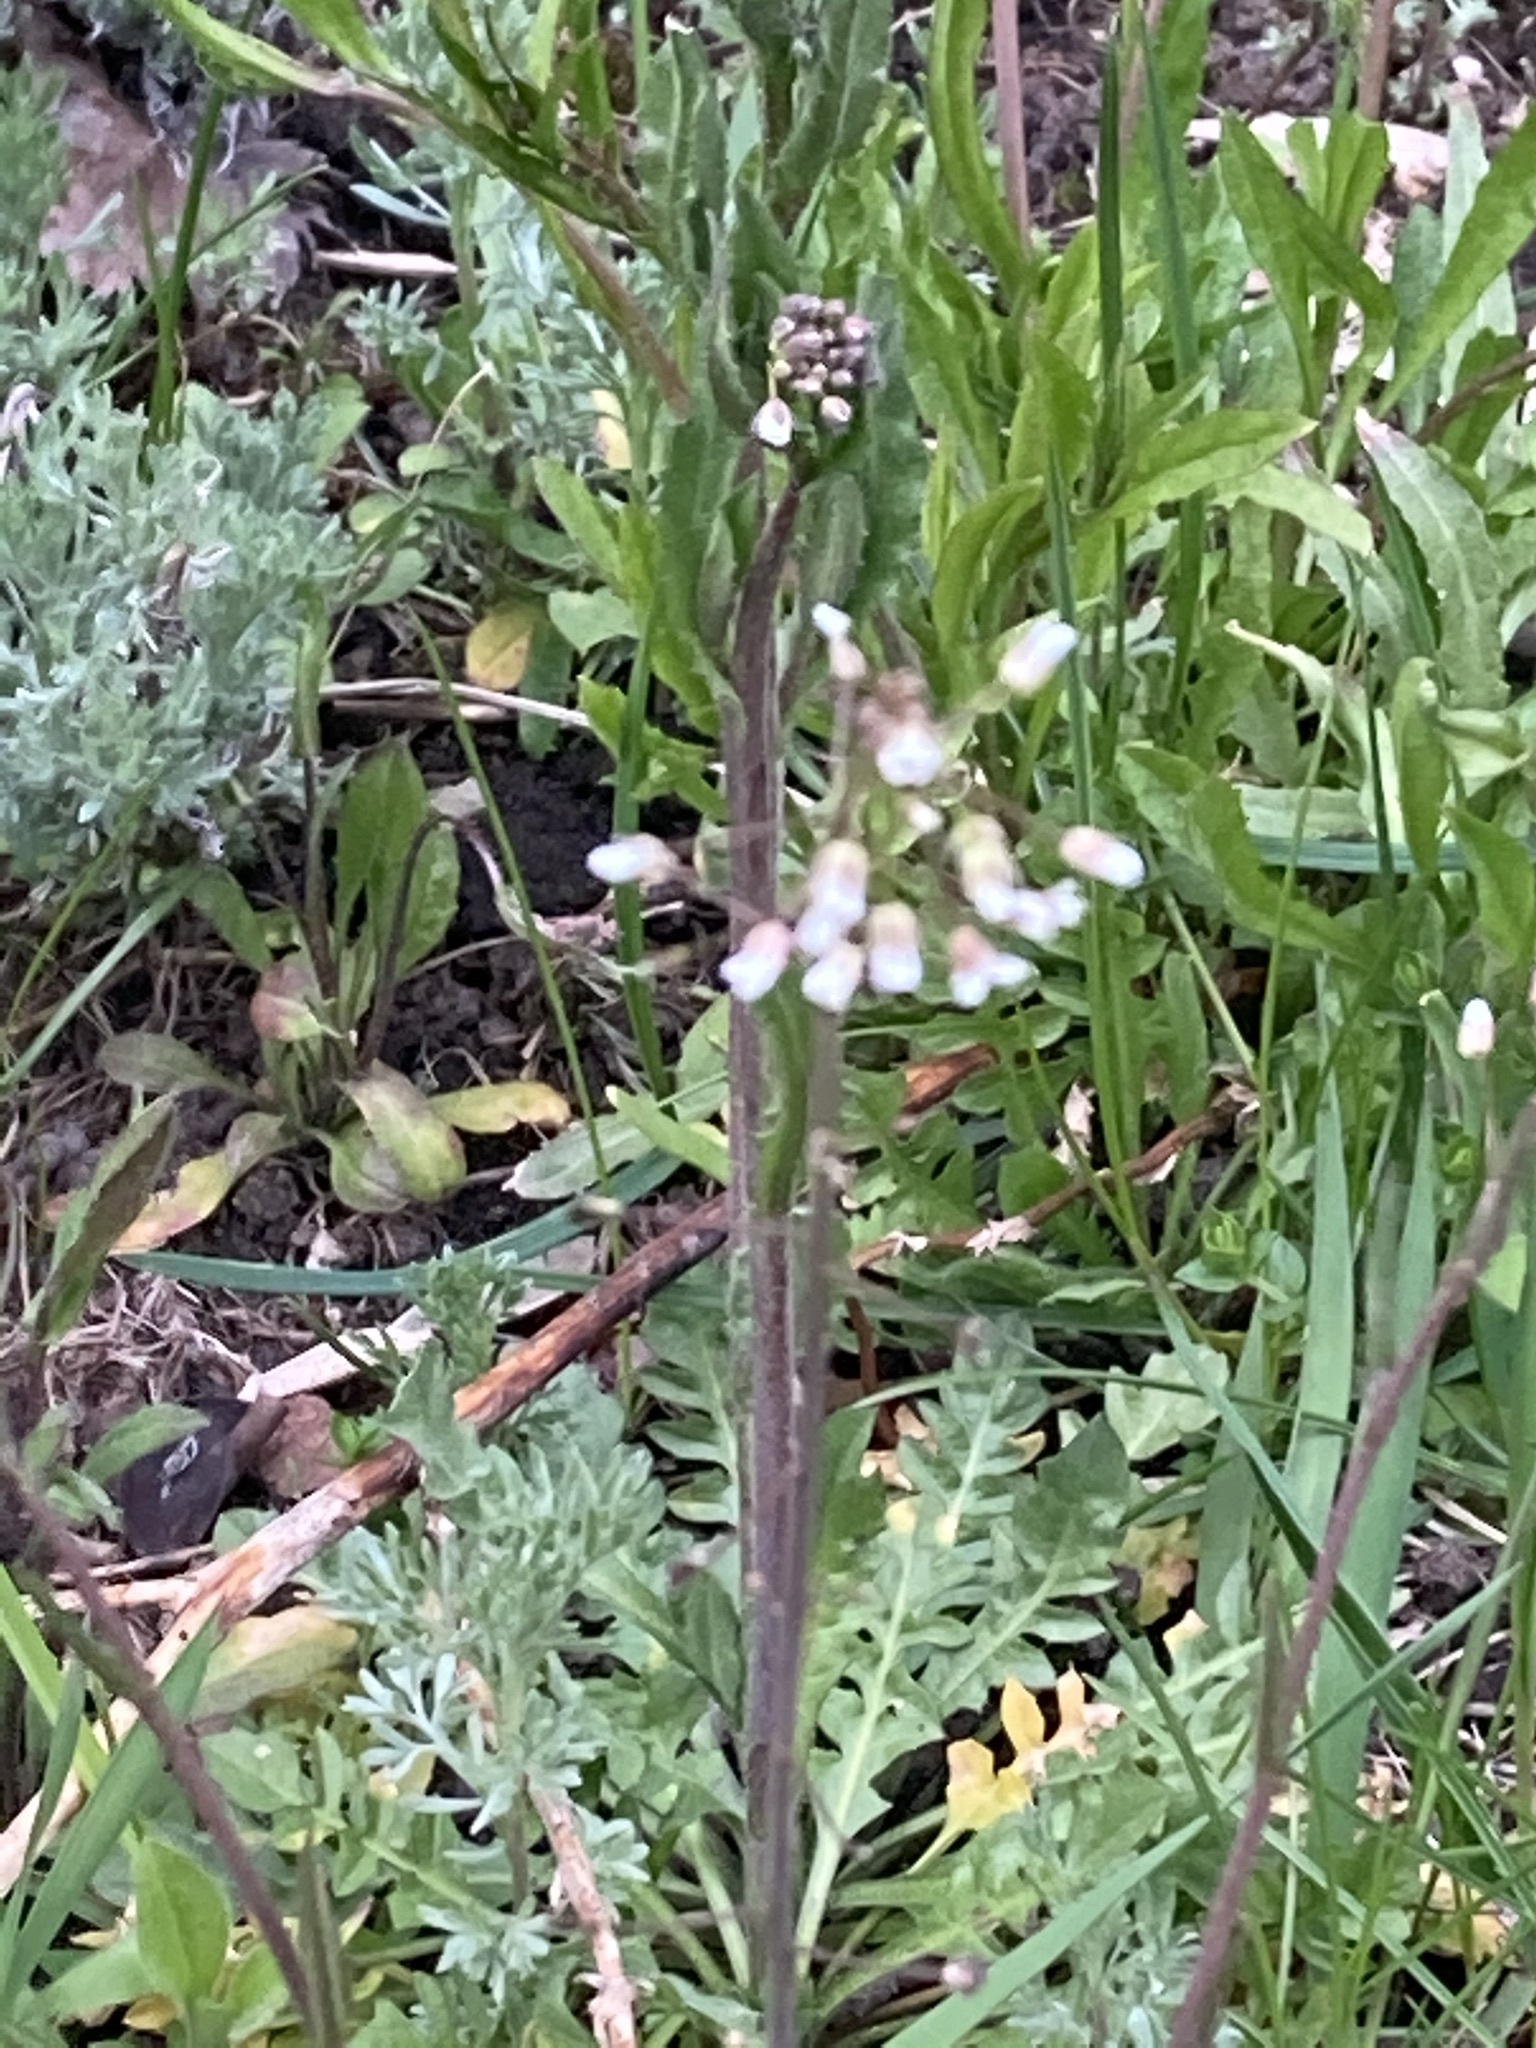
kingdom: Plantae
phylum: Tracheophyta
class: Magnoliopsida
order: Brassicales
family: Brassicaceae
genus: Capsella
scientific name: Capsella bursa-pastoris
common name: Shepherd's purse
